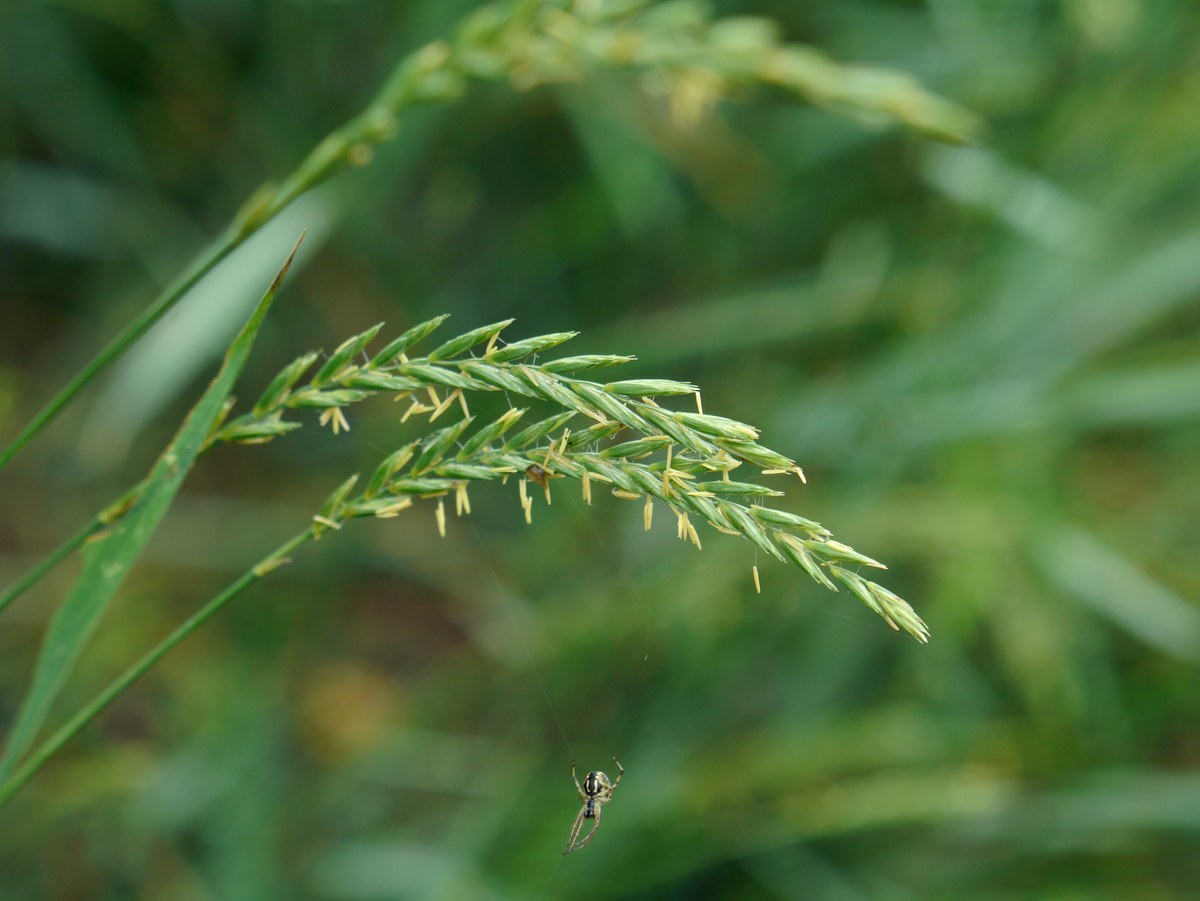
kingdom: Plantae
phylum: Tracheophyta
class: Liliopsida
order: Poales
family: Poaceae
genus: Elymus
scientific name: Elymus repens
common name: Quackgrass
